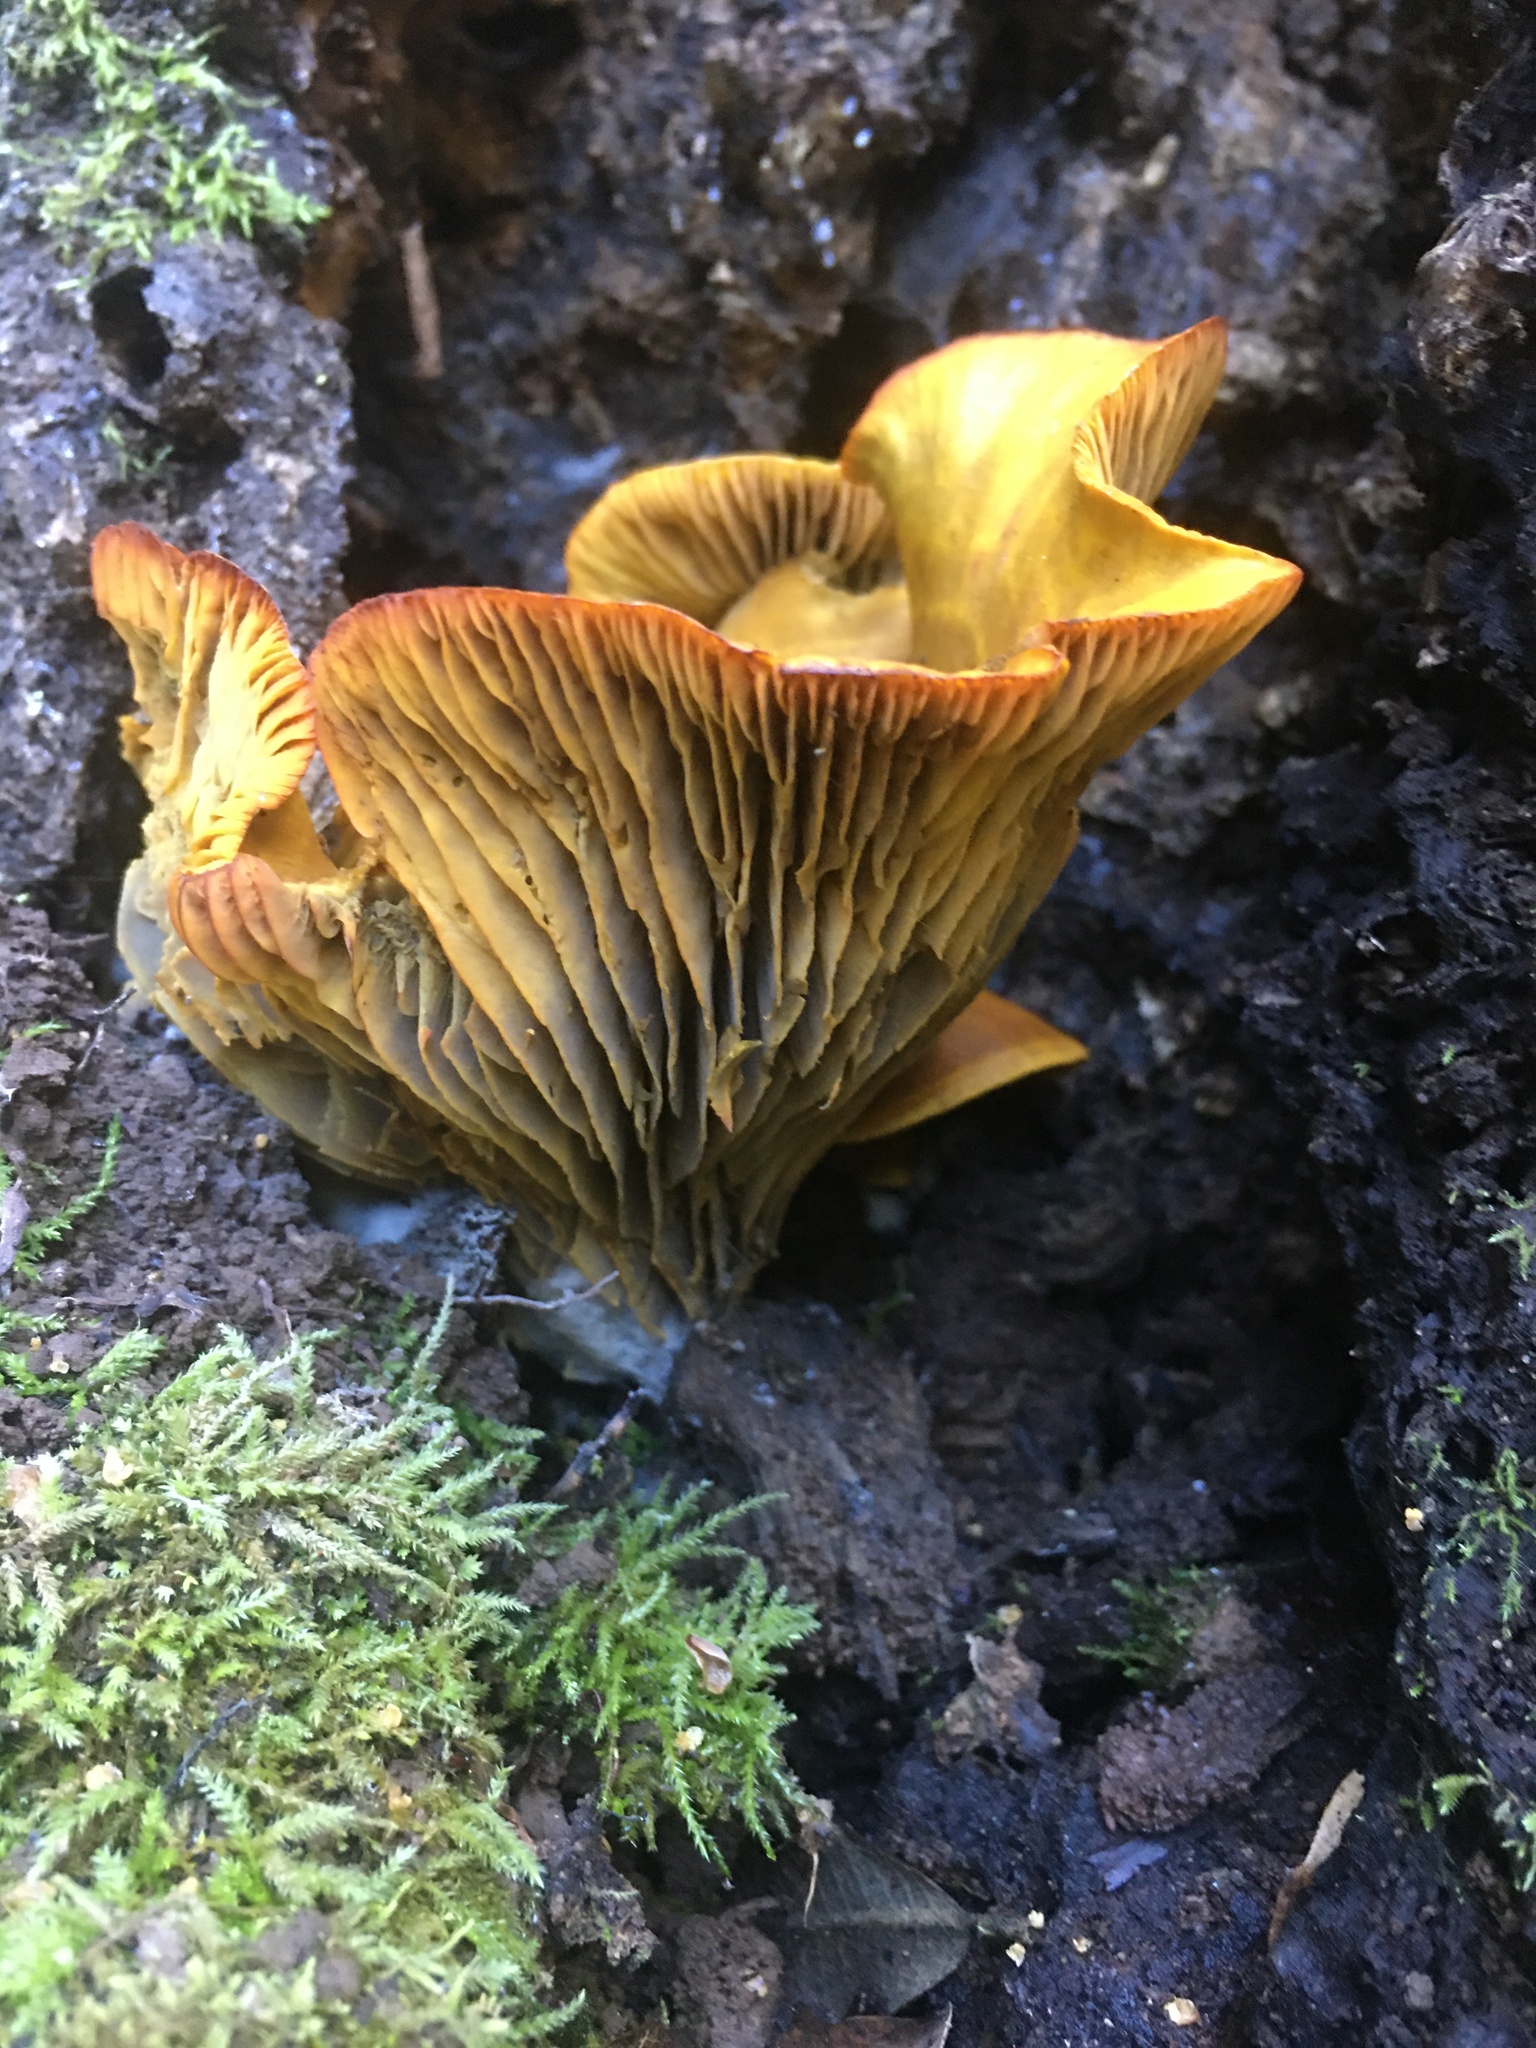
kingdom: Fungi
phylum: Basidiomycota
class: Agaricomycetes
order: Agaricales
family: Omphalotaceae
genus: Omphalotus
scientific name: Omphalotus olivascens
